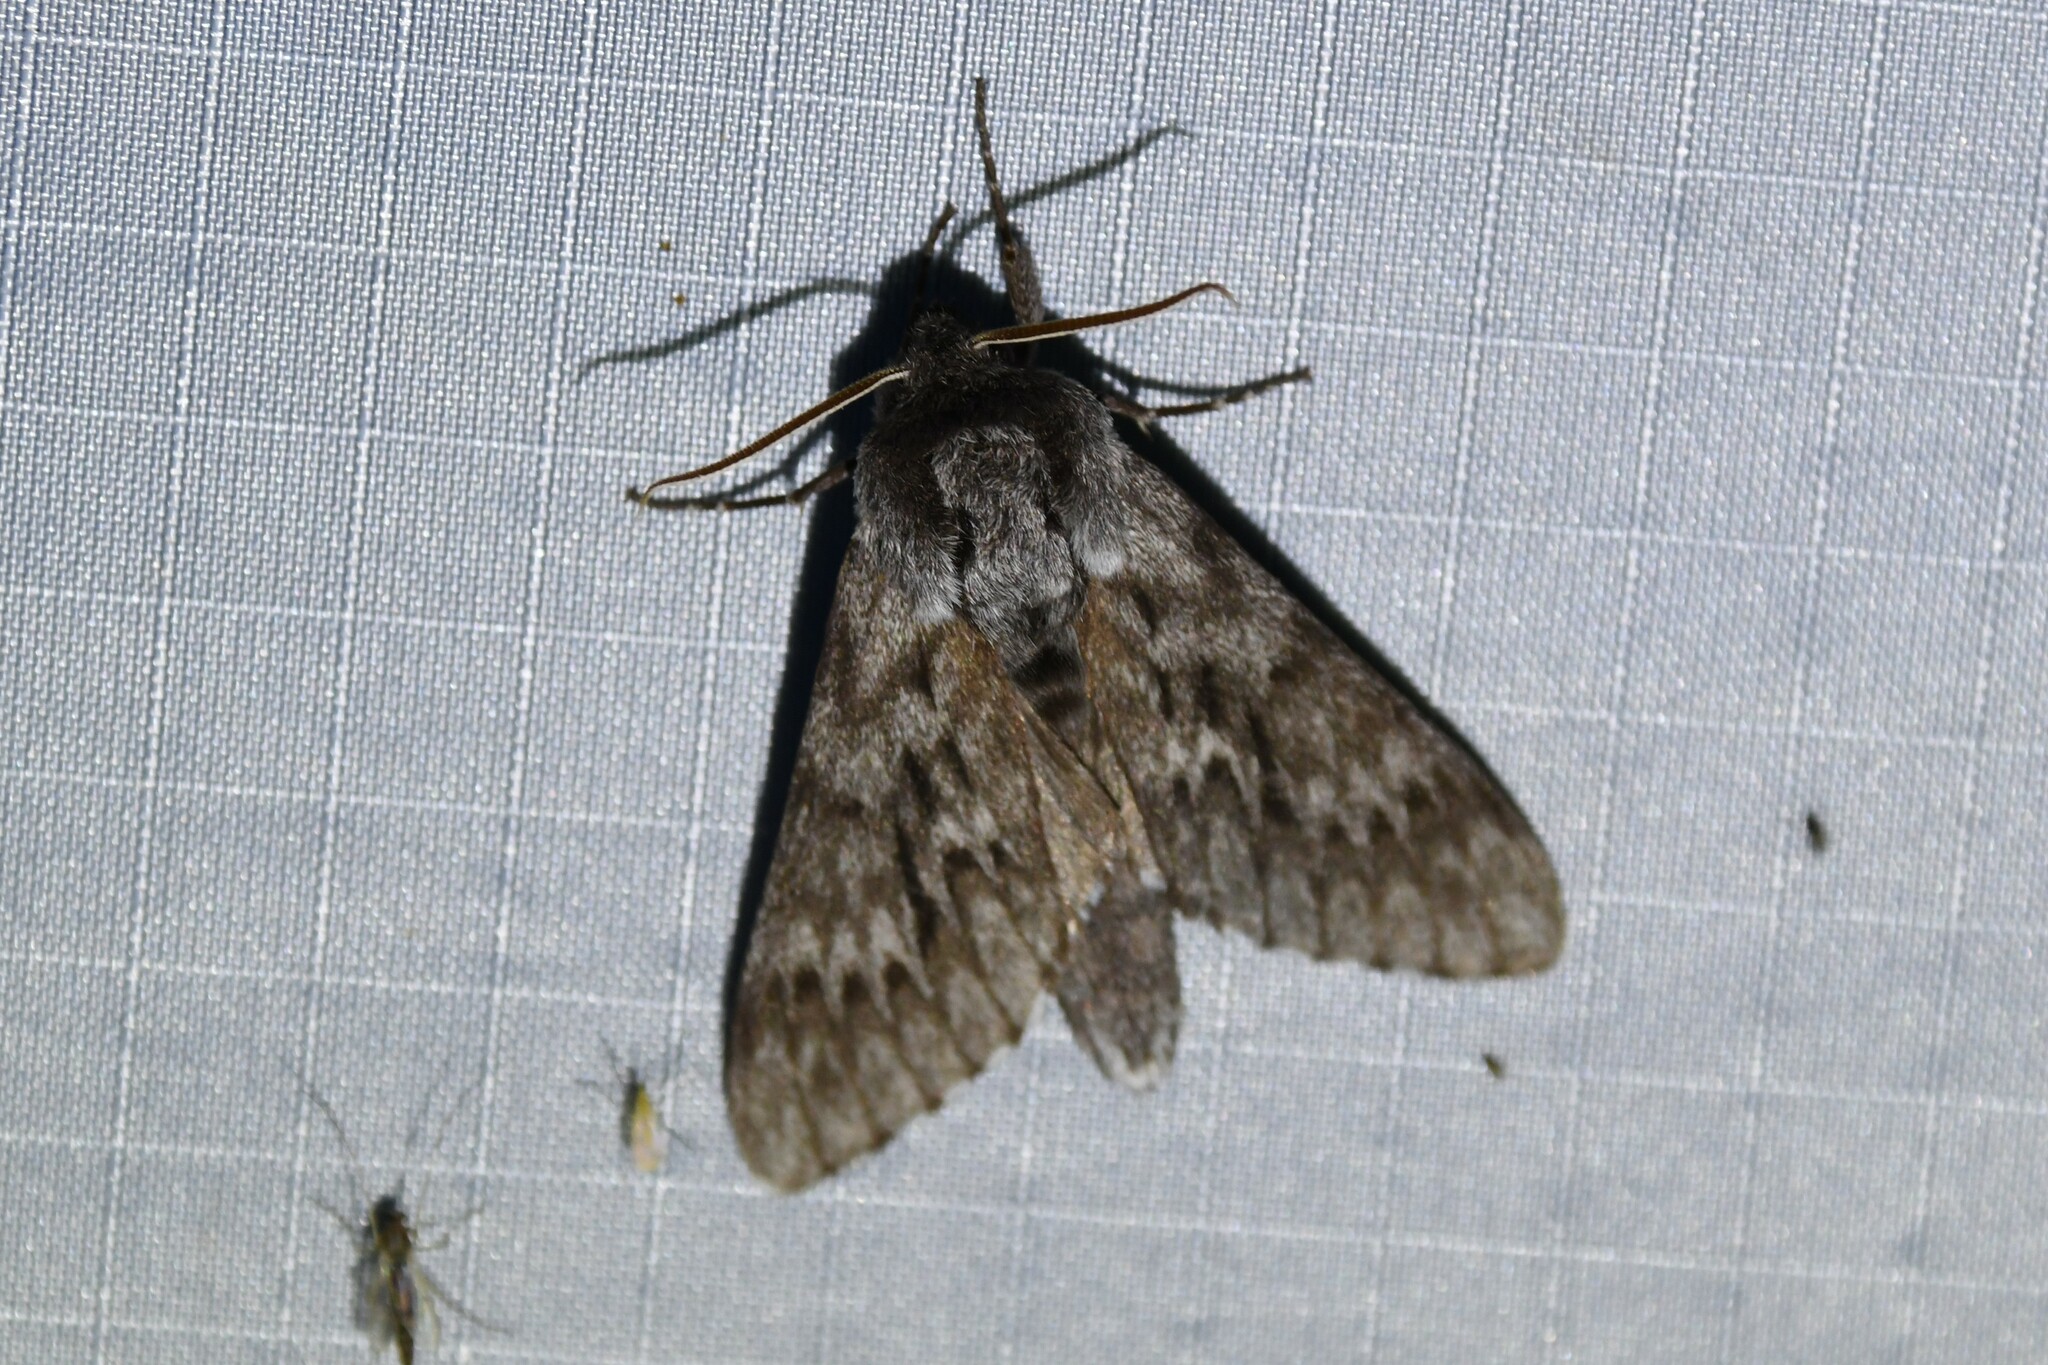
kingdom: Animalia
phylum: Arthropoda
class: Insecta
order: Lepidoptera
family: Sphingidae
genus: Lapara
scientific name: Lapara bombycoides
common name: Northern pine sphinx
